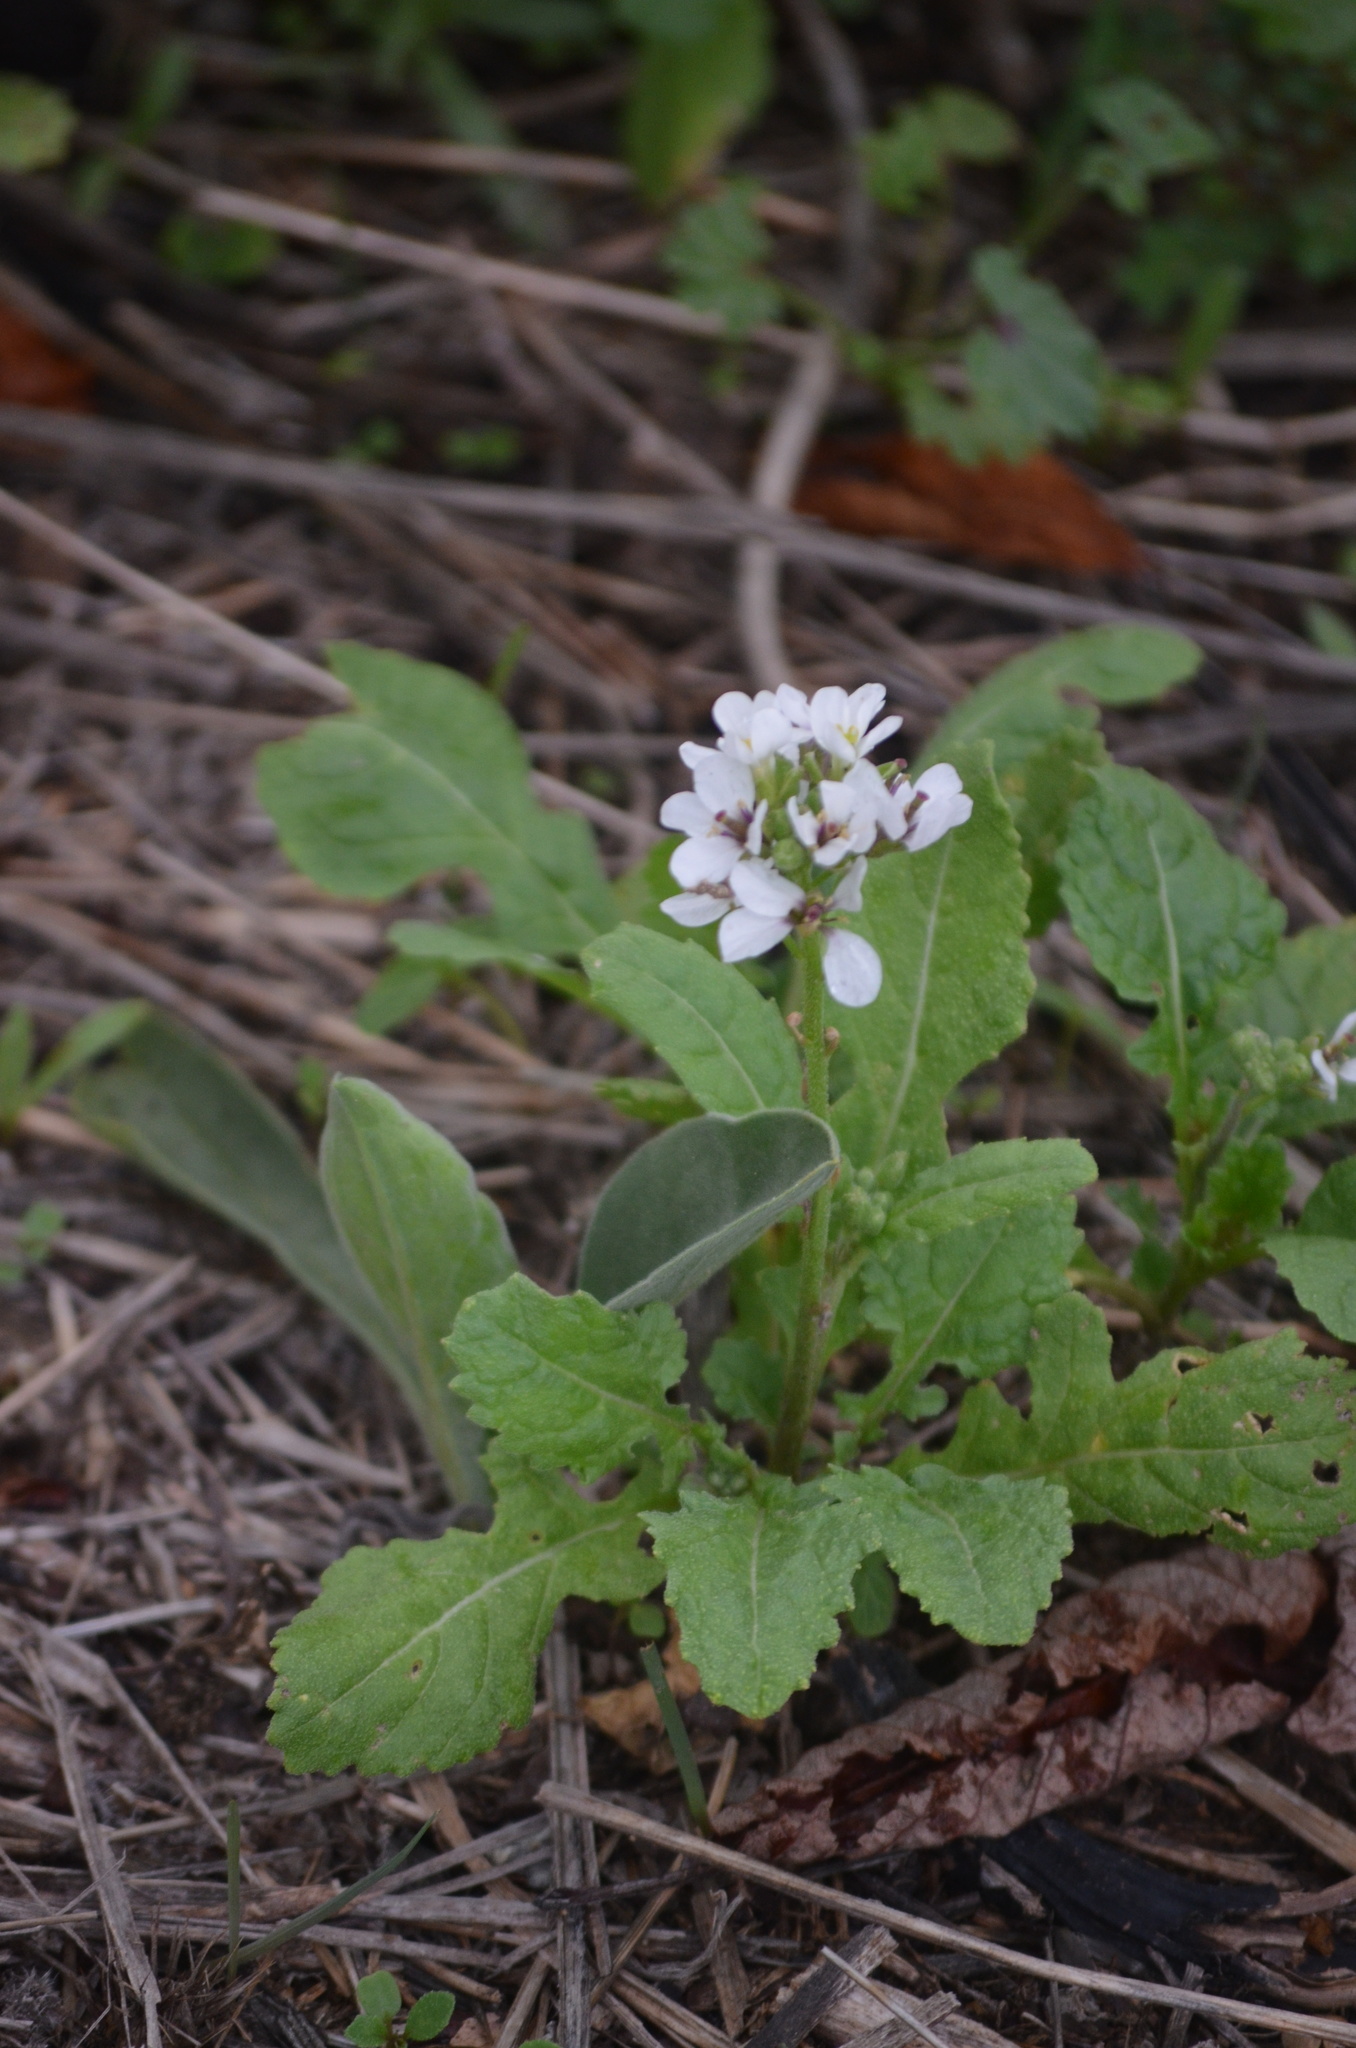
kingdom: Plantae
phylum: Tracheophyta
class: Magnoliopsida
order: Brassicales
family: Brassicaceae
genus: Diplotaxis
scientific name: Diplotaxis erucoides
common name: White rocket
